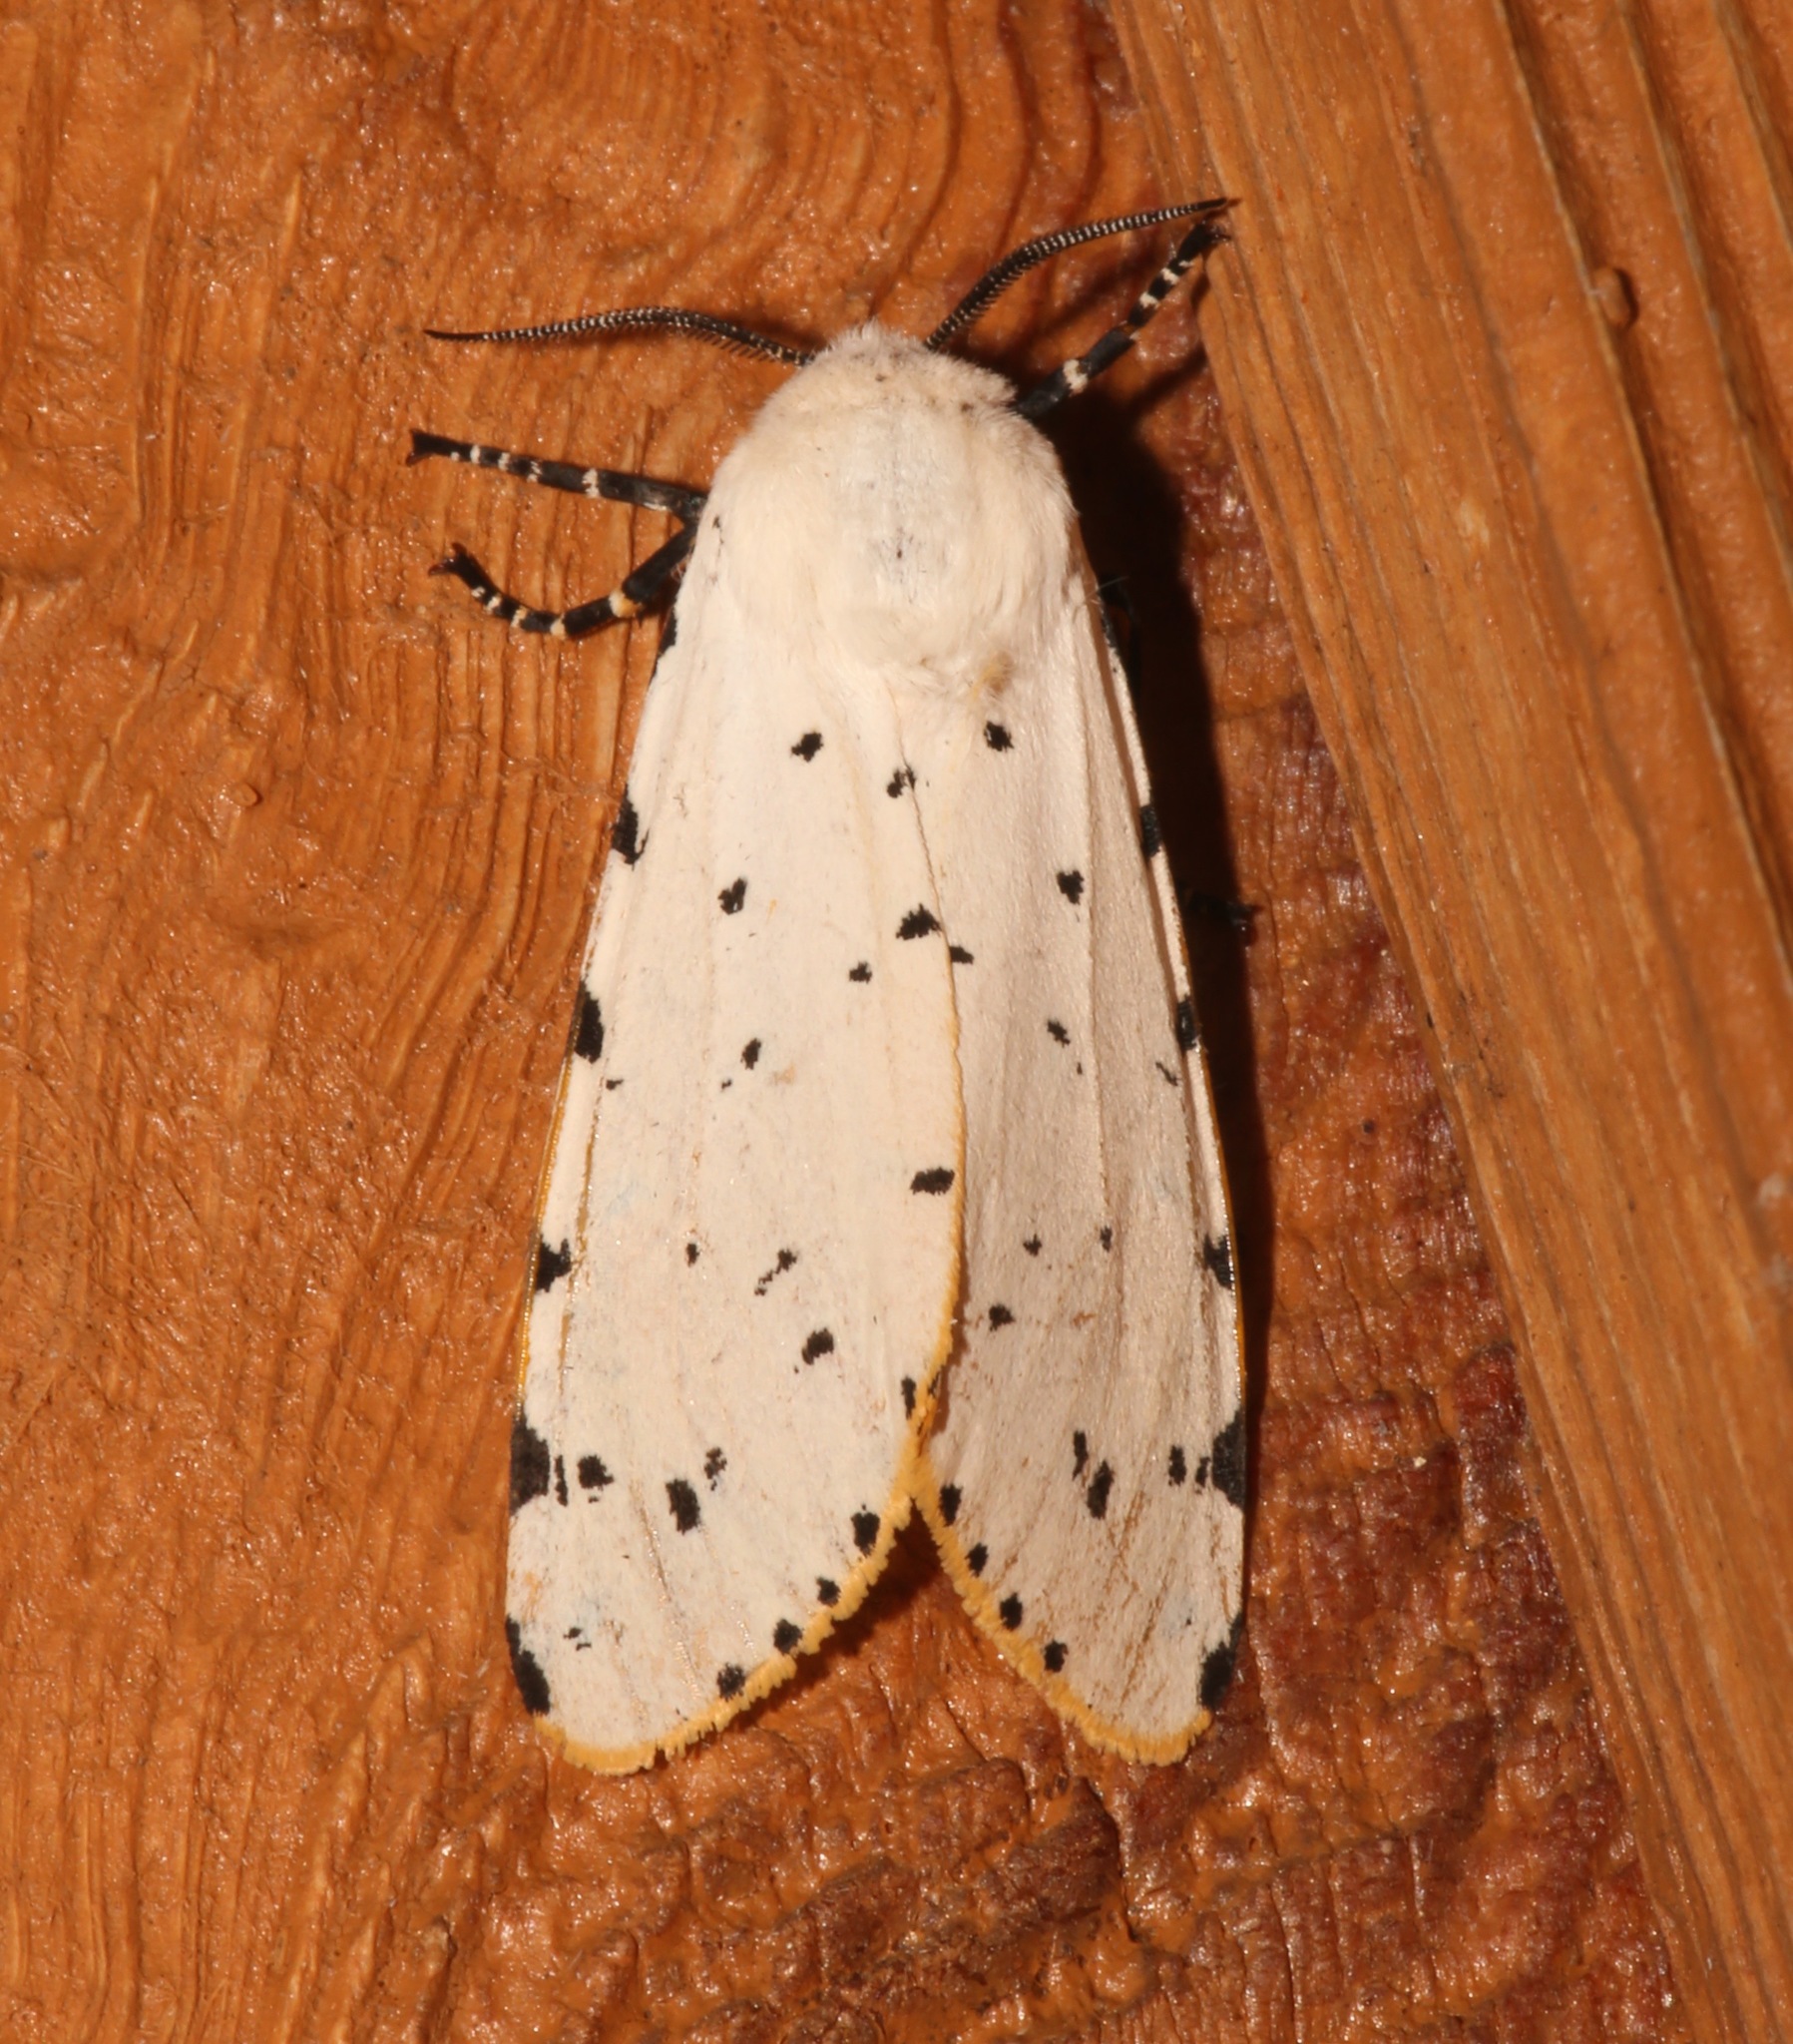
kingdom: Animalia
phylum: Arthropoda
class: Insecta
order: Lepidoptera
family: Erebidae
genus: Estigmene
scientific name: Estigmene acrea
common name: Salt marsh moth
